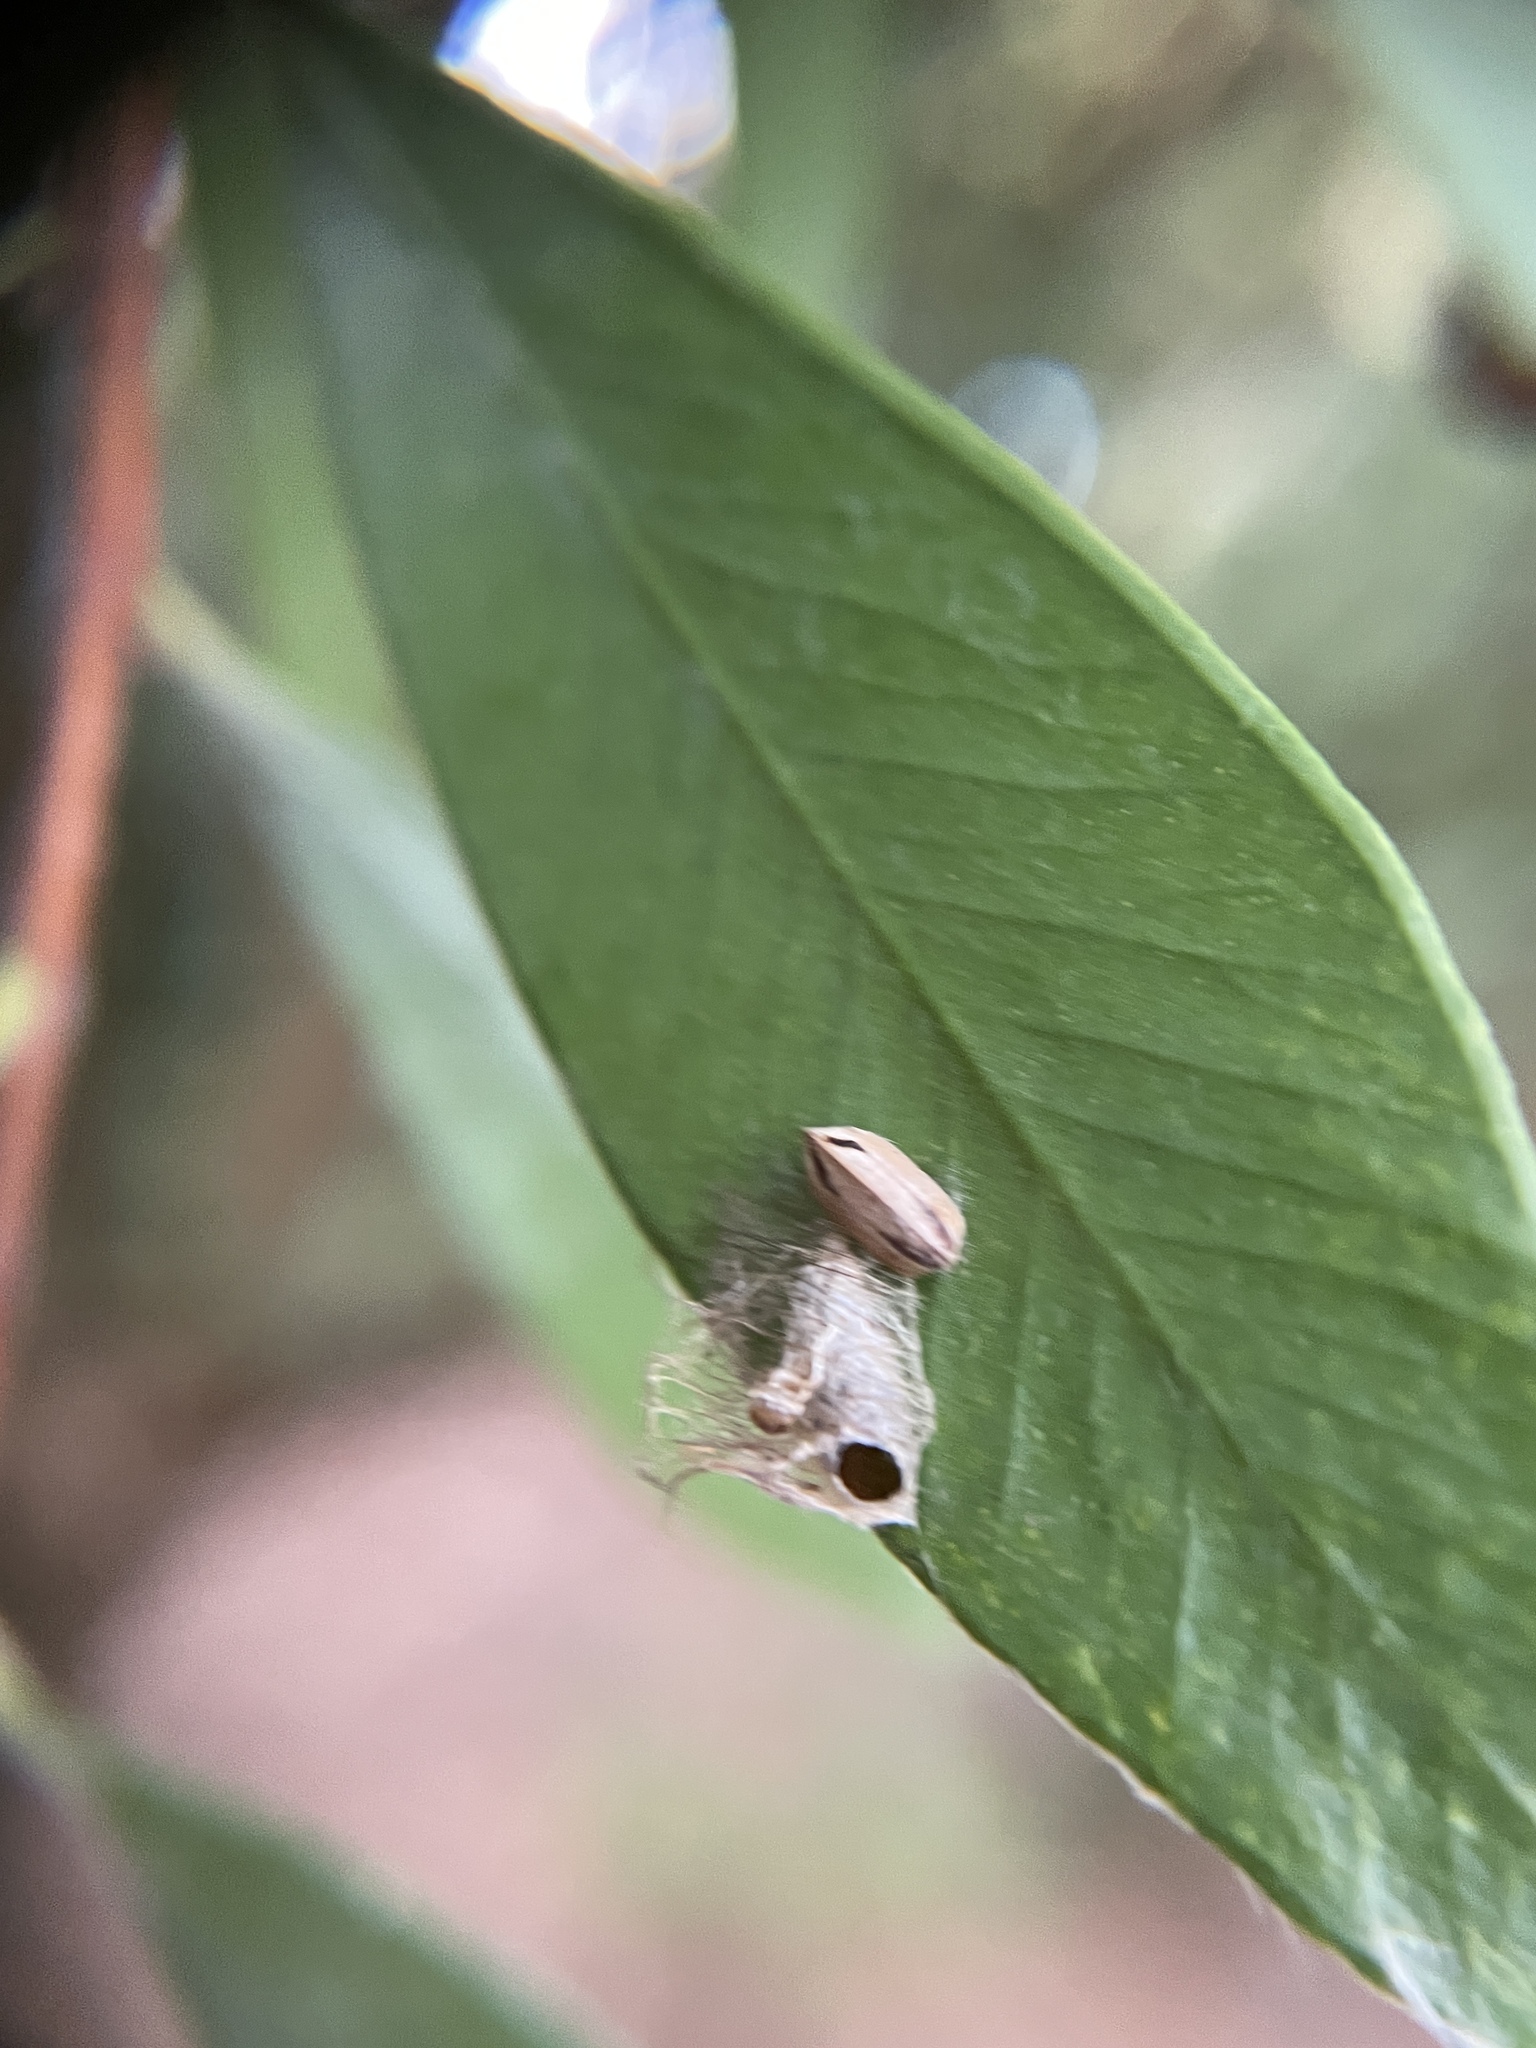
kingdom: Animalia
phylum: Arthropoda
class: Insecta
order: Blattodea
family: Ectobiidae
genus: Balta
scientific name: Balta bicolor
